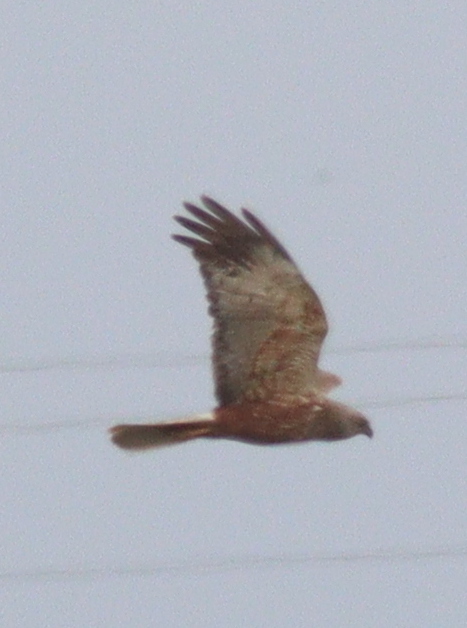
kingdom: Animalia
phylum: Chordata
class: Aves
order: Accipitriformes
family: Accipitridae
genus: Circus
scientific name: Circus aeruginosus
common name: Western marsh harrier
